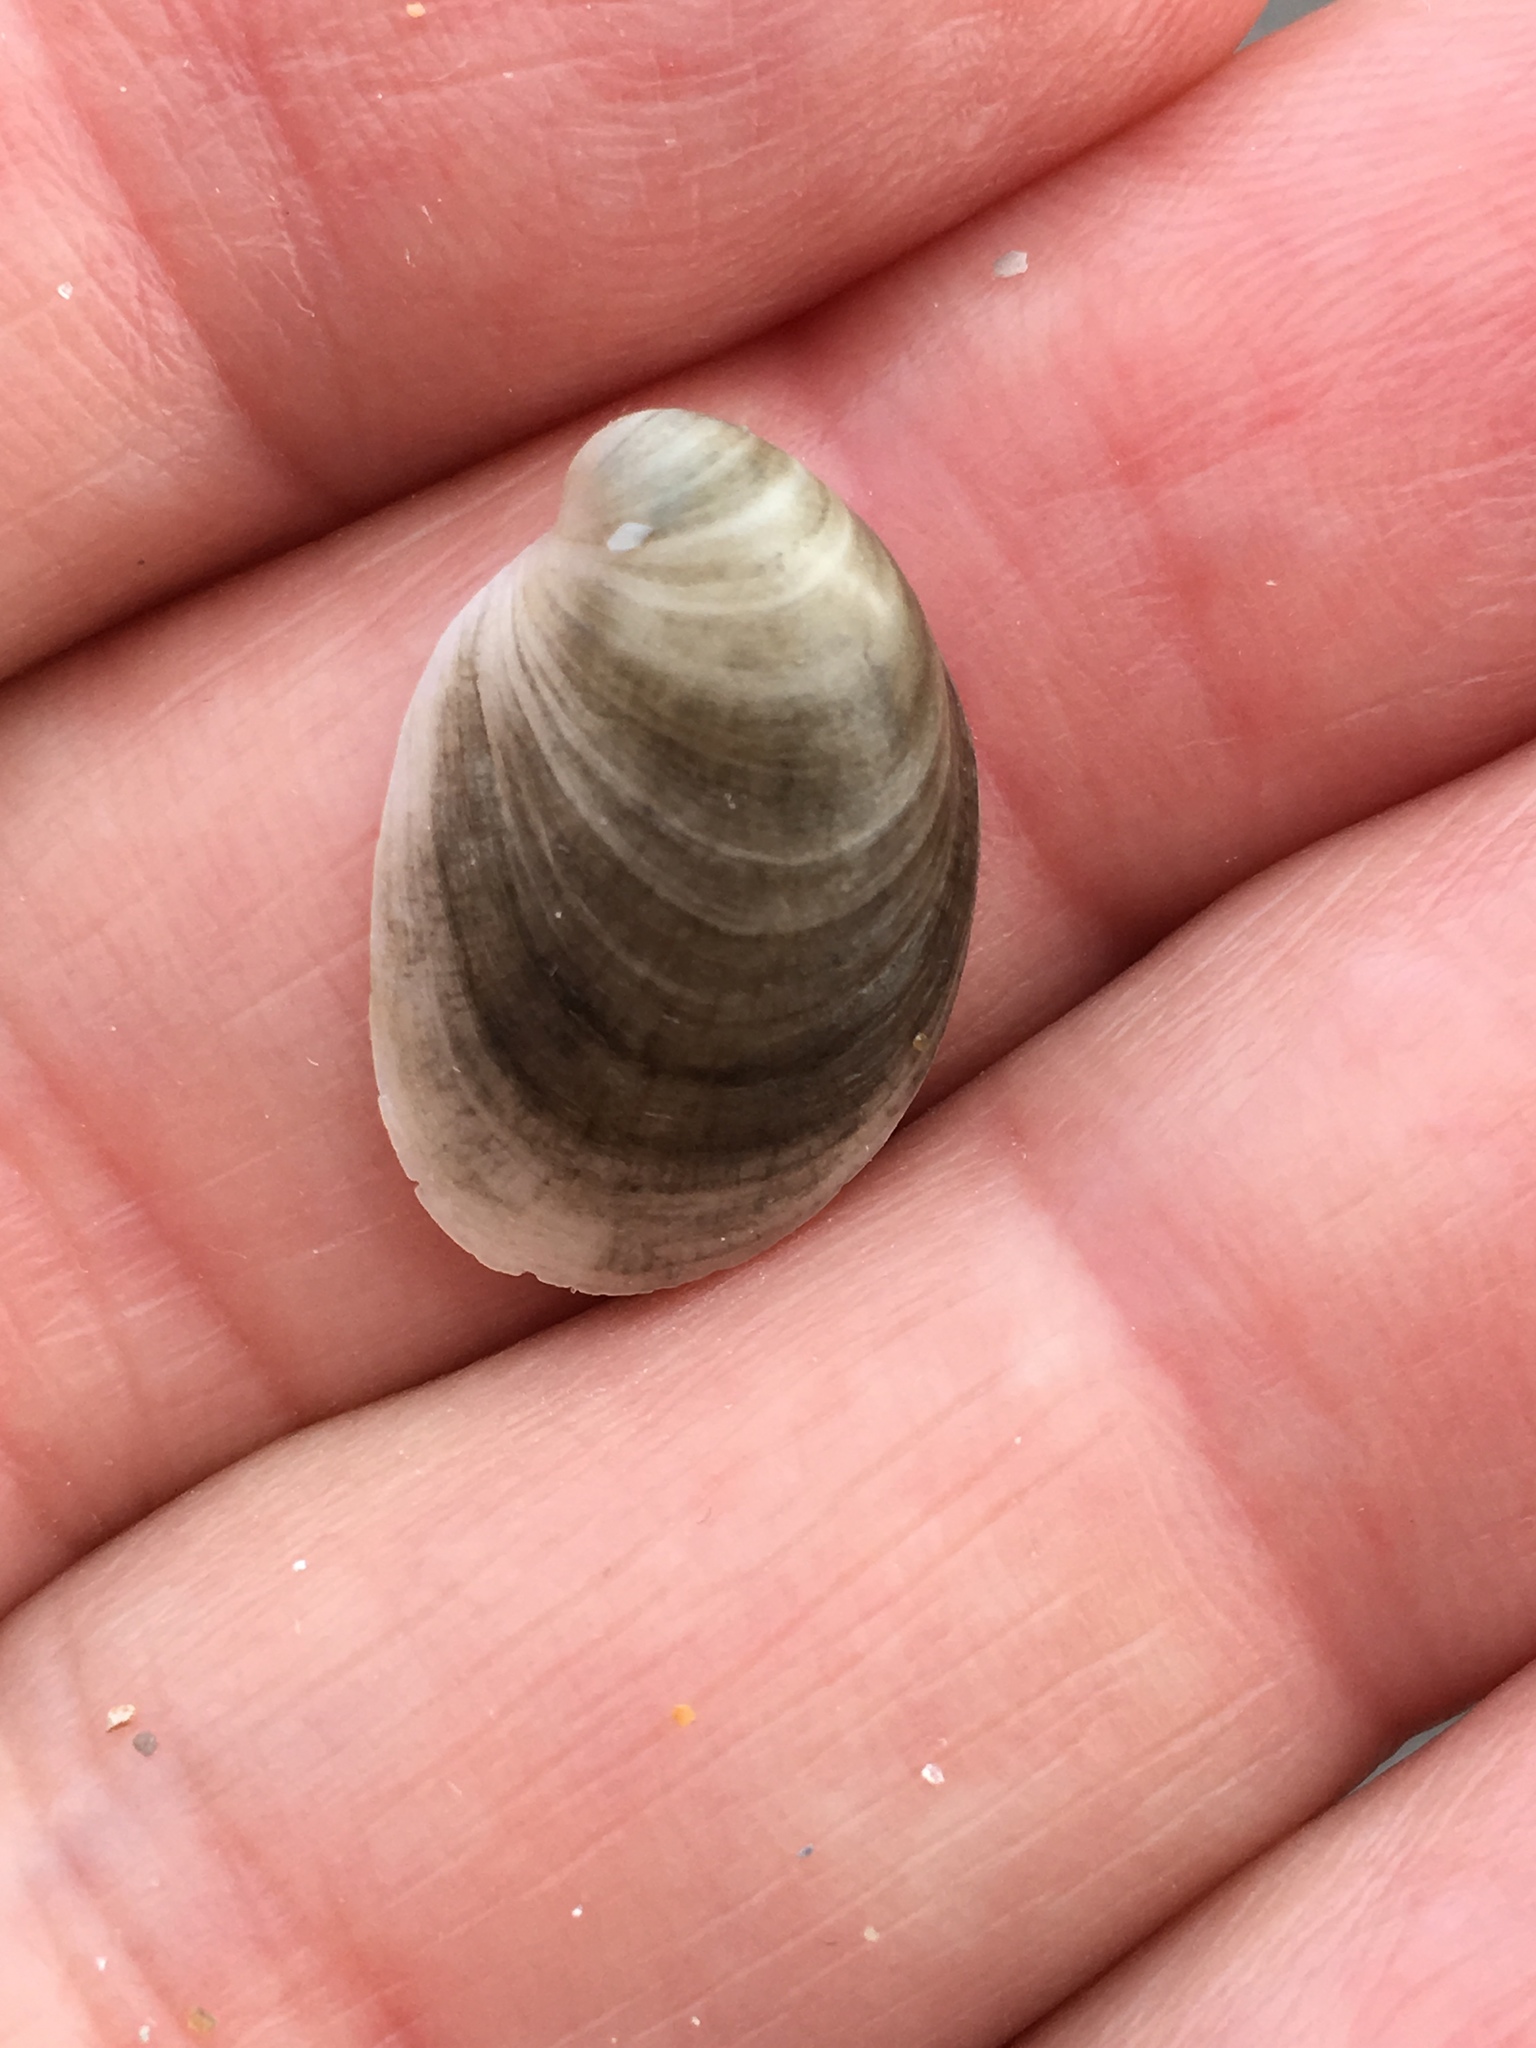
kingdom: Animalia
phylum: Mollusca
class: Gastropoda
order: Littorinimorpha
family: Calyptraeidae
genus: Crepidula
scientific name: Crepidula maculosa
